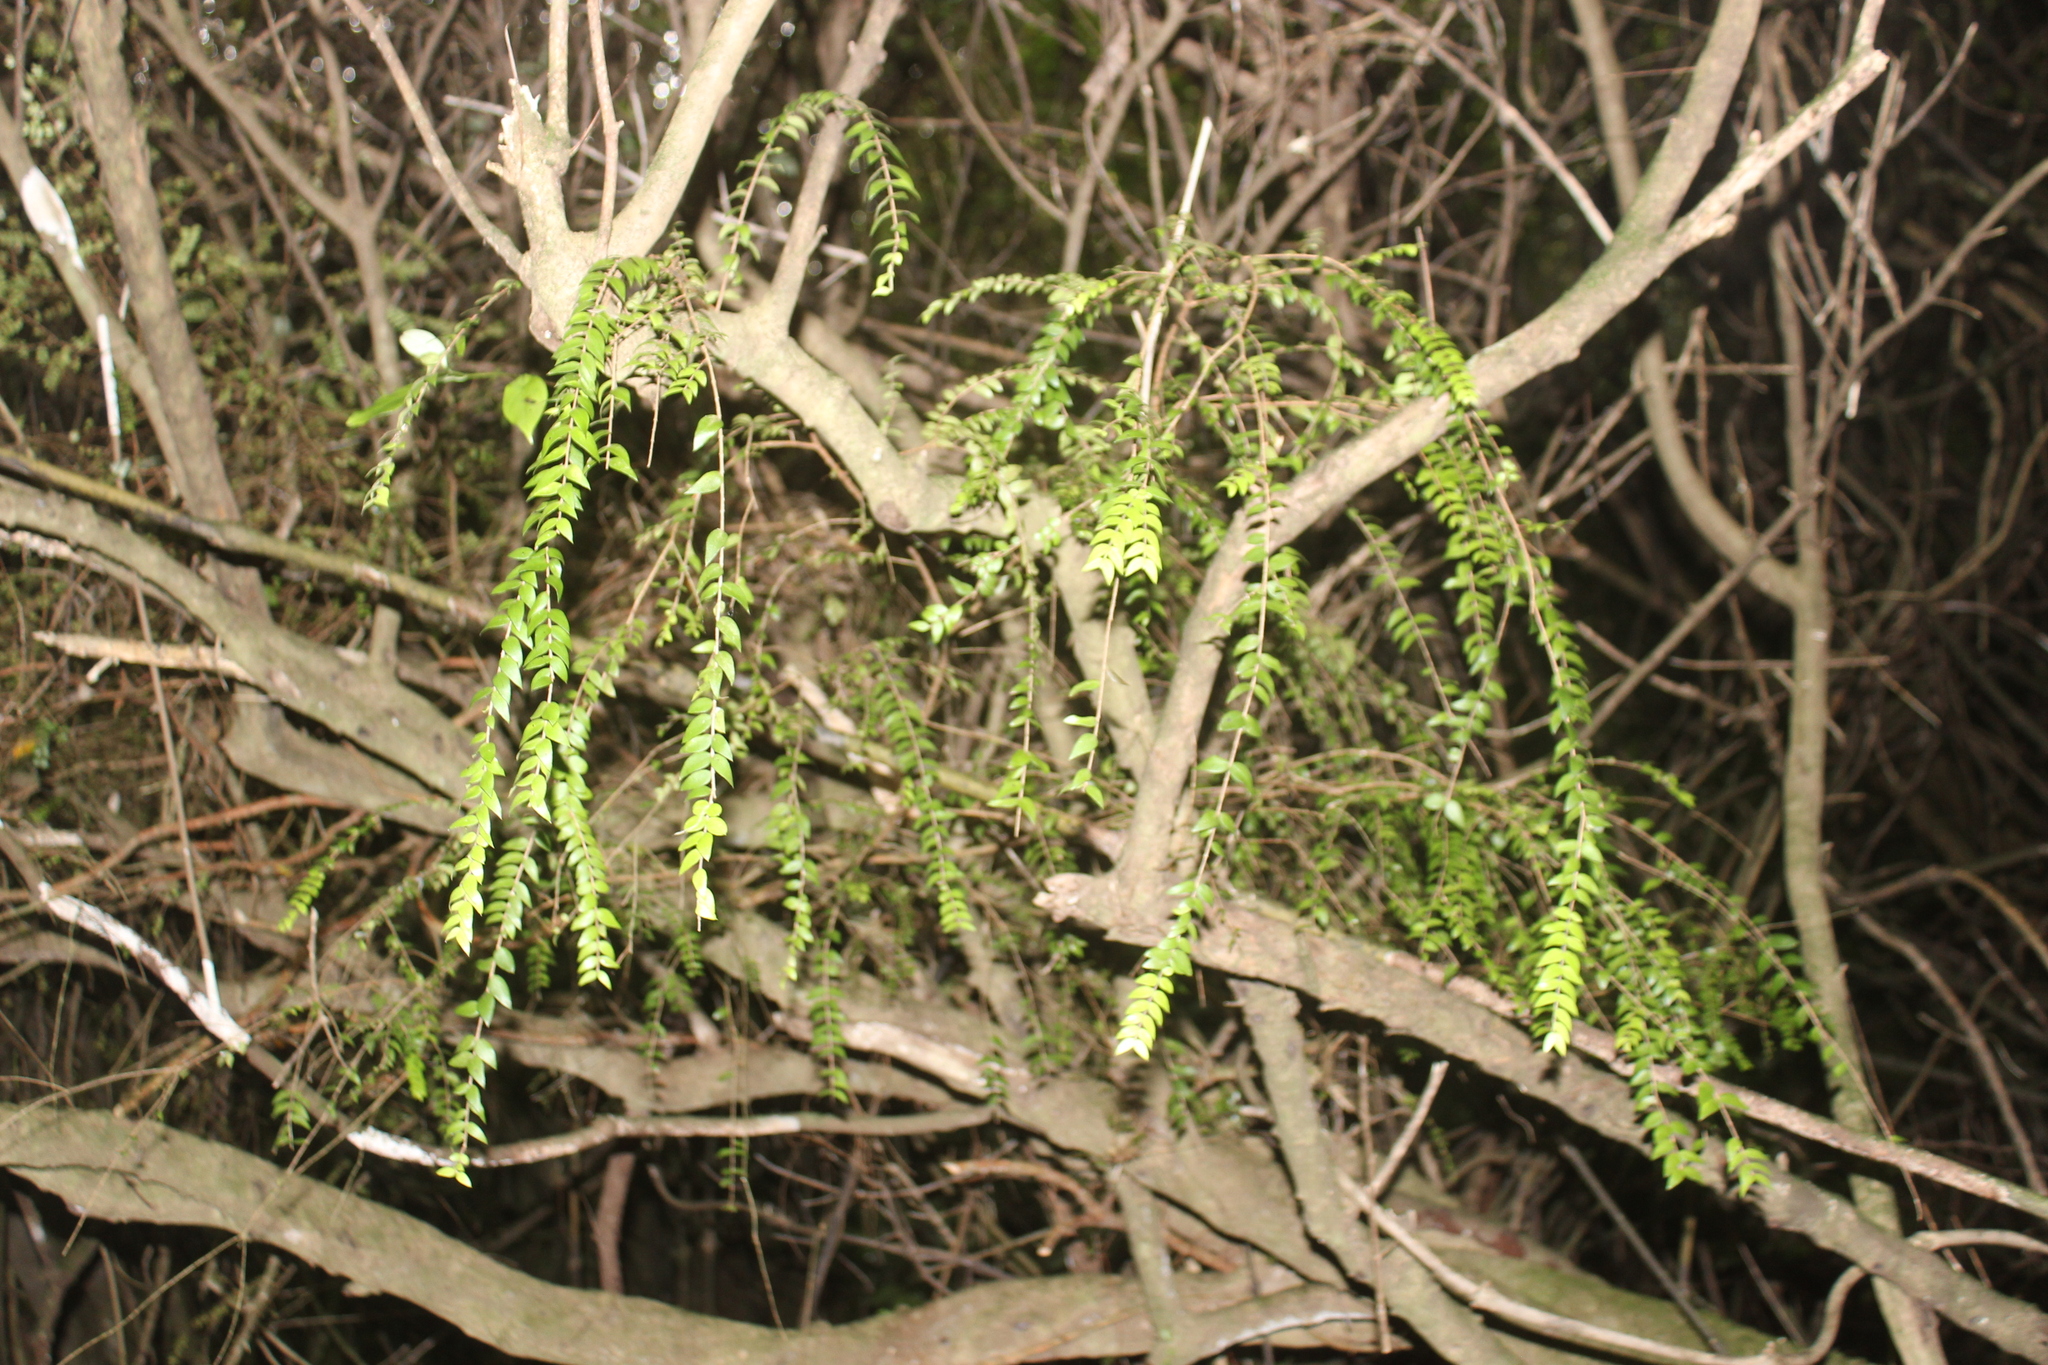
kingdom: Plantae
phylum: Tracheophyta
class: Magnoliopsida
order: Myrtales
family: Myrtaceae
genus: Metrosideros
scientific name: Metrosideros colensoi
